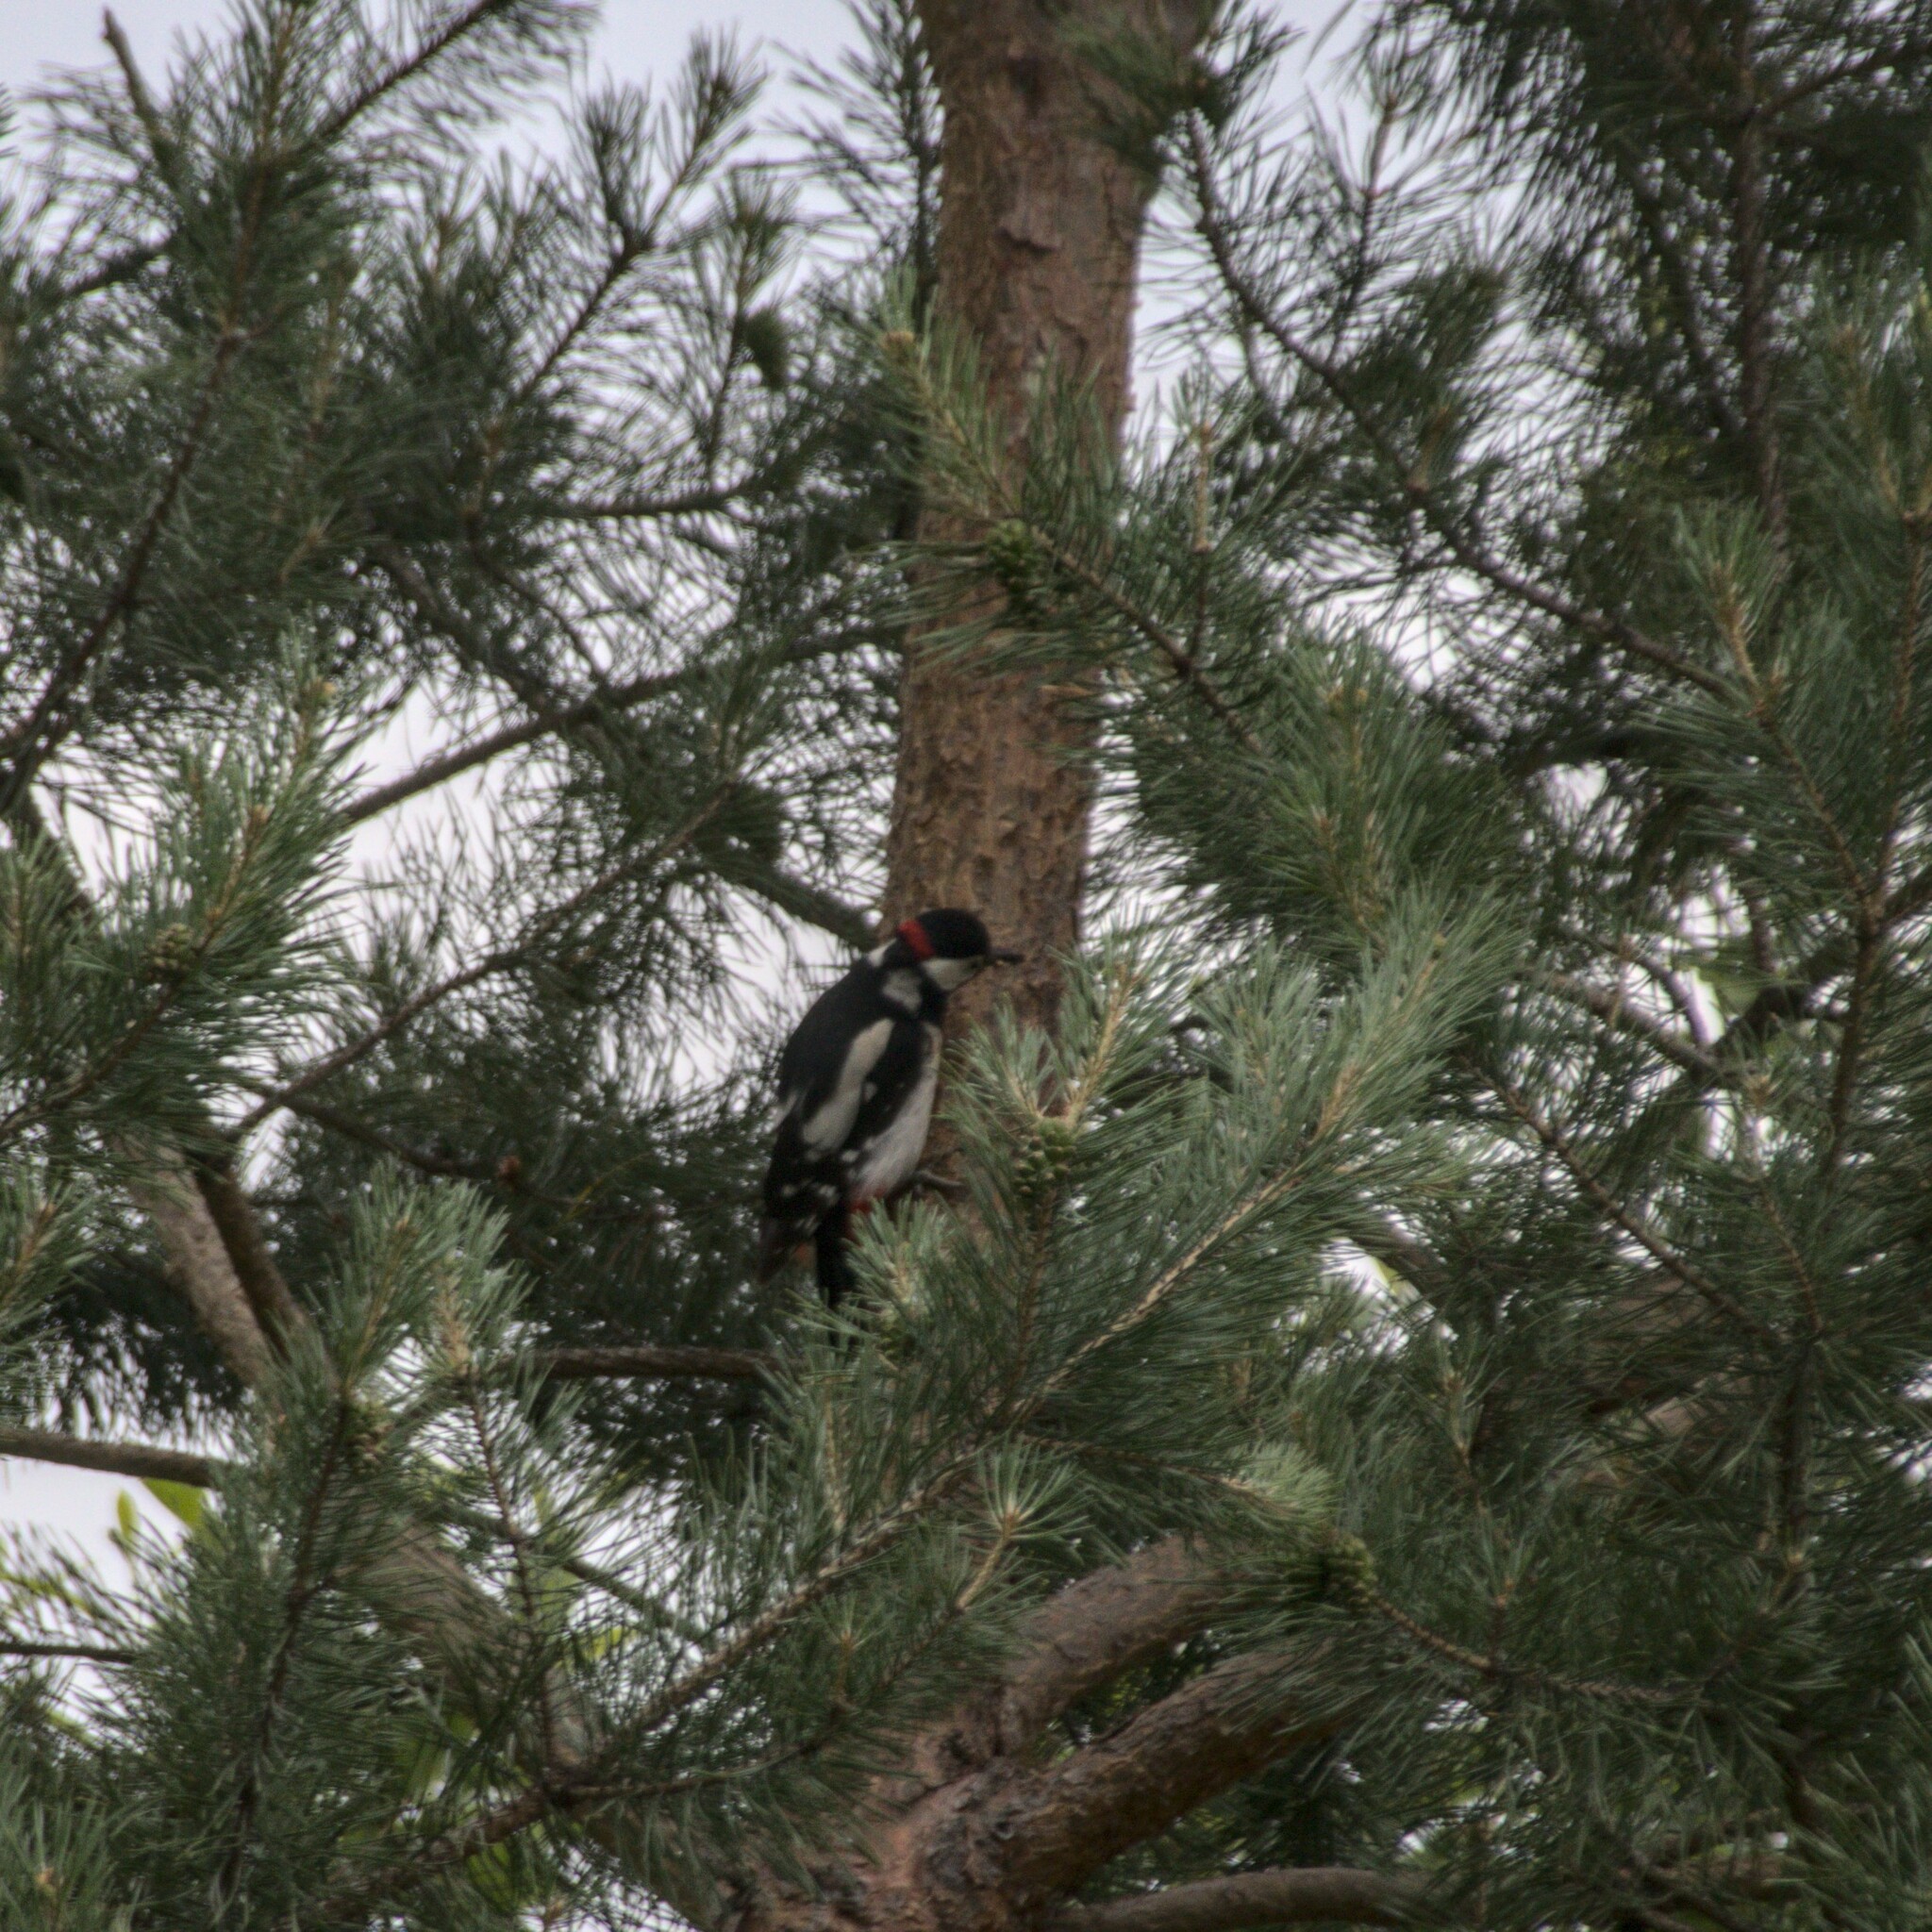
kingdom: Animalia
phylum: Chordata
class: Aves
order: Piciformes
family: Picidae
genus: Dendrocopos
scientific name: Dendrocopos major
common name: Great spotted woodpecker
